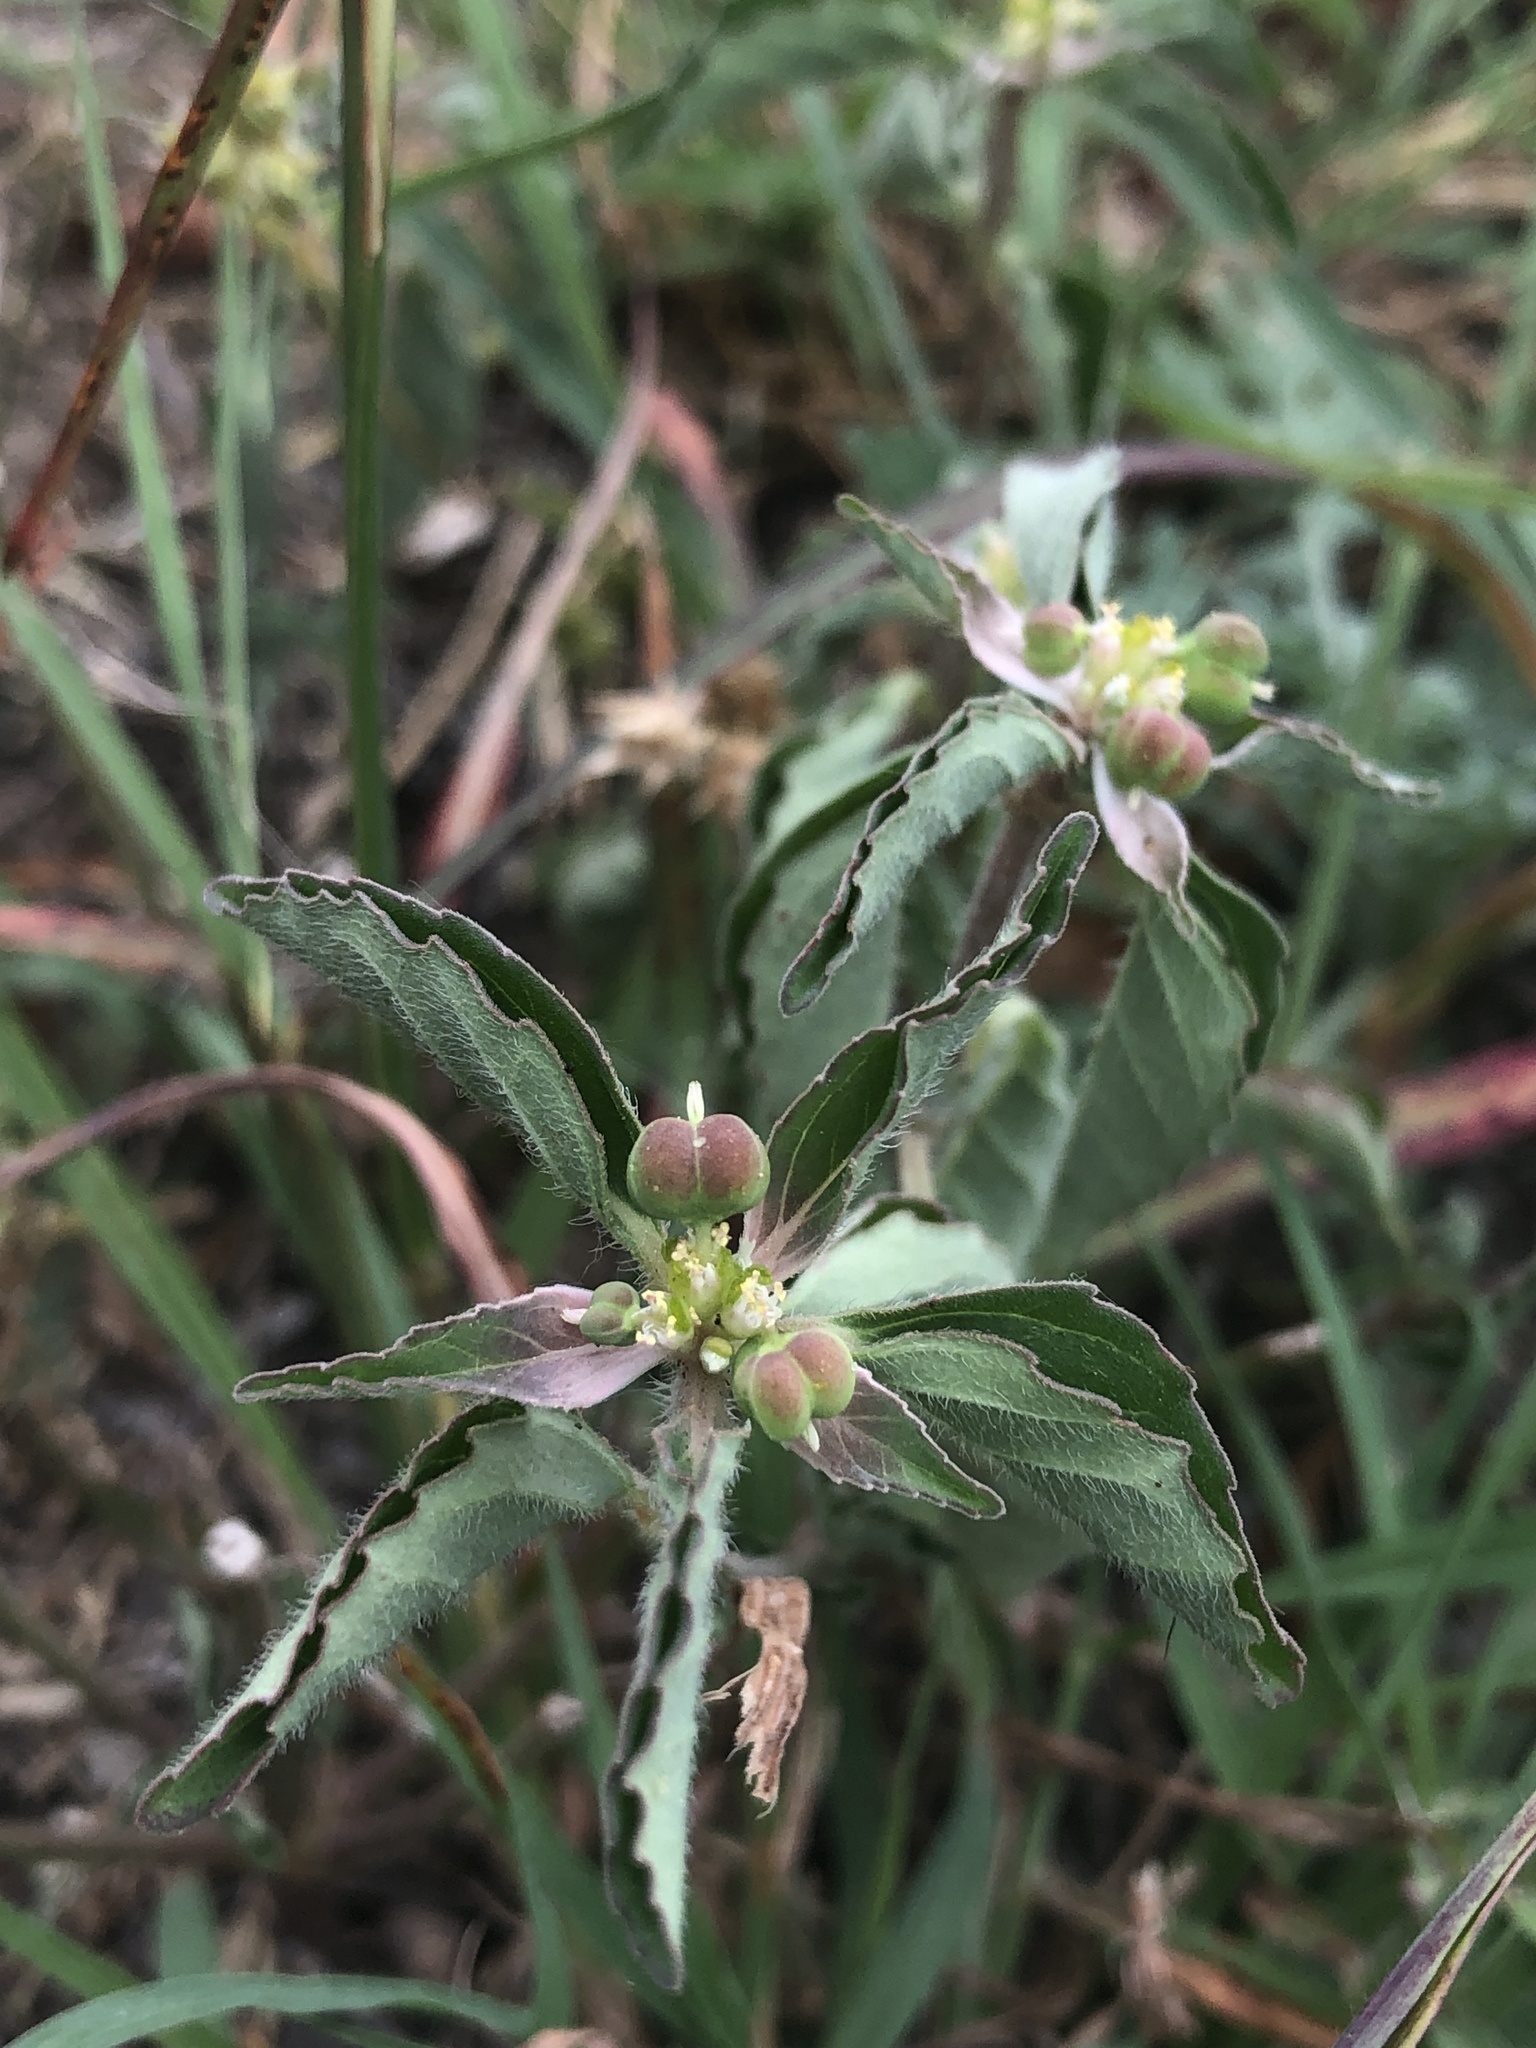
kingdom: Plantae
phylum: Tracheophyta
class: Magnoliopsida
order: Malpighiales
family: Euphorbiaceae
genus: Euphorbia
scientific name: Euphorbia dentata
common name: Dentate spurge
